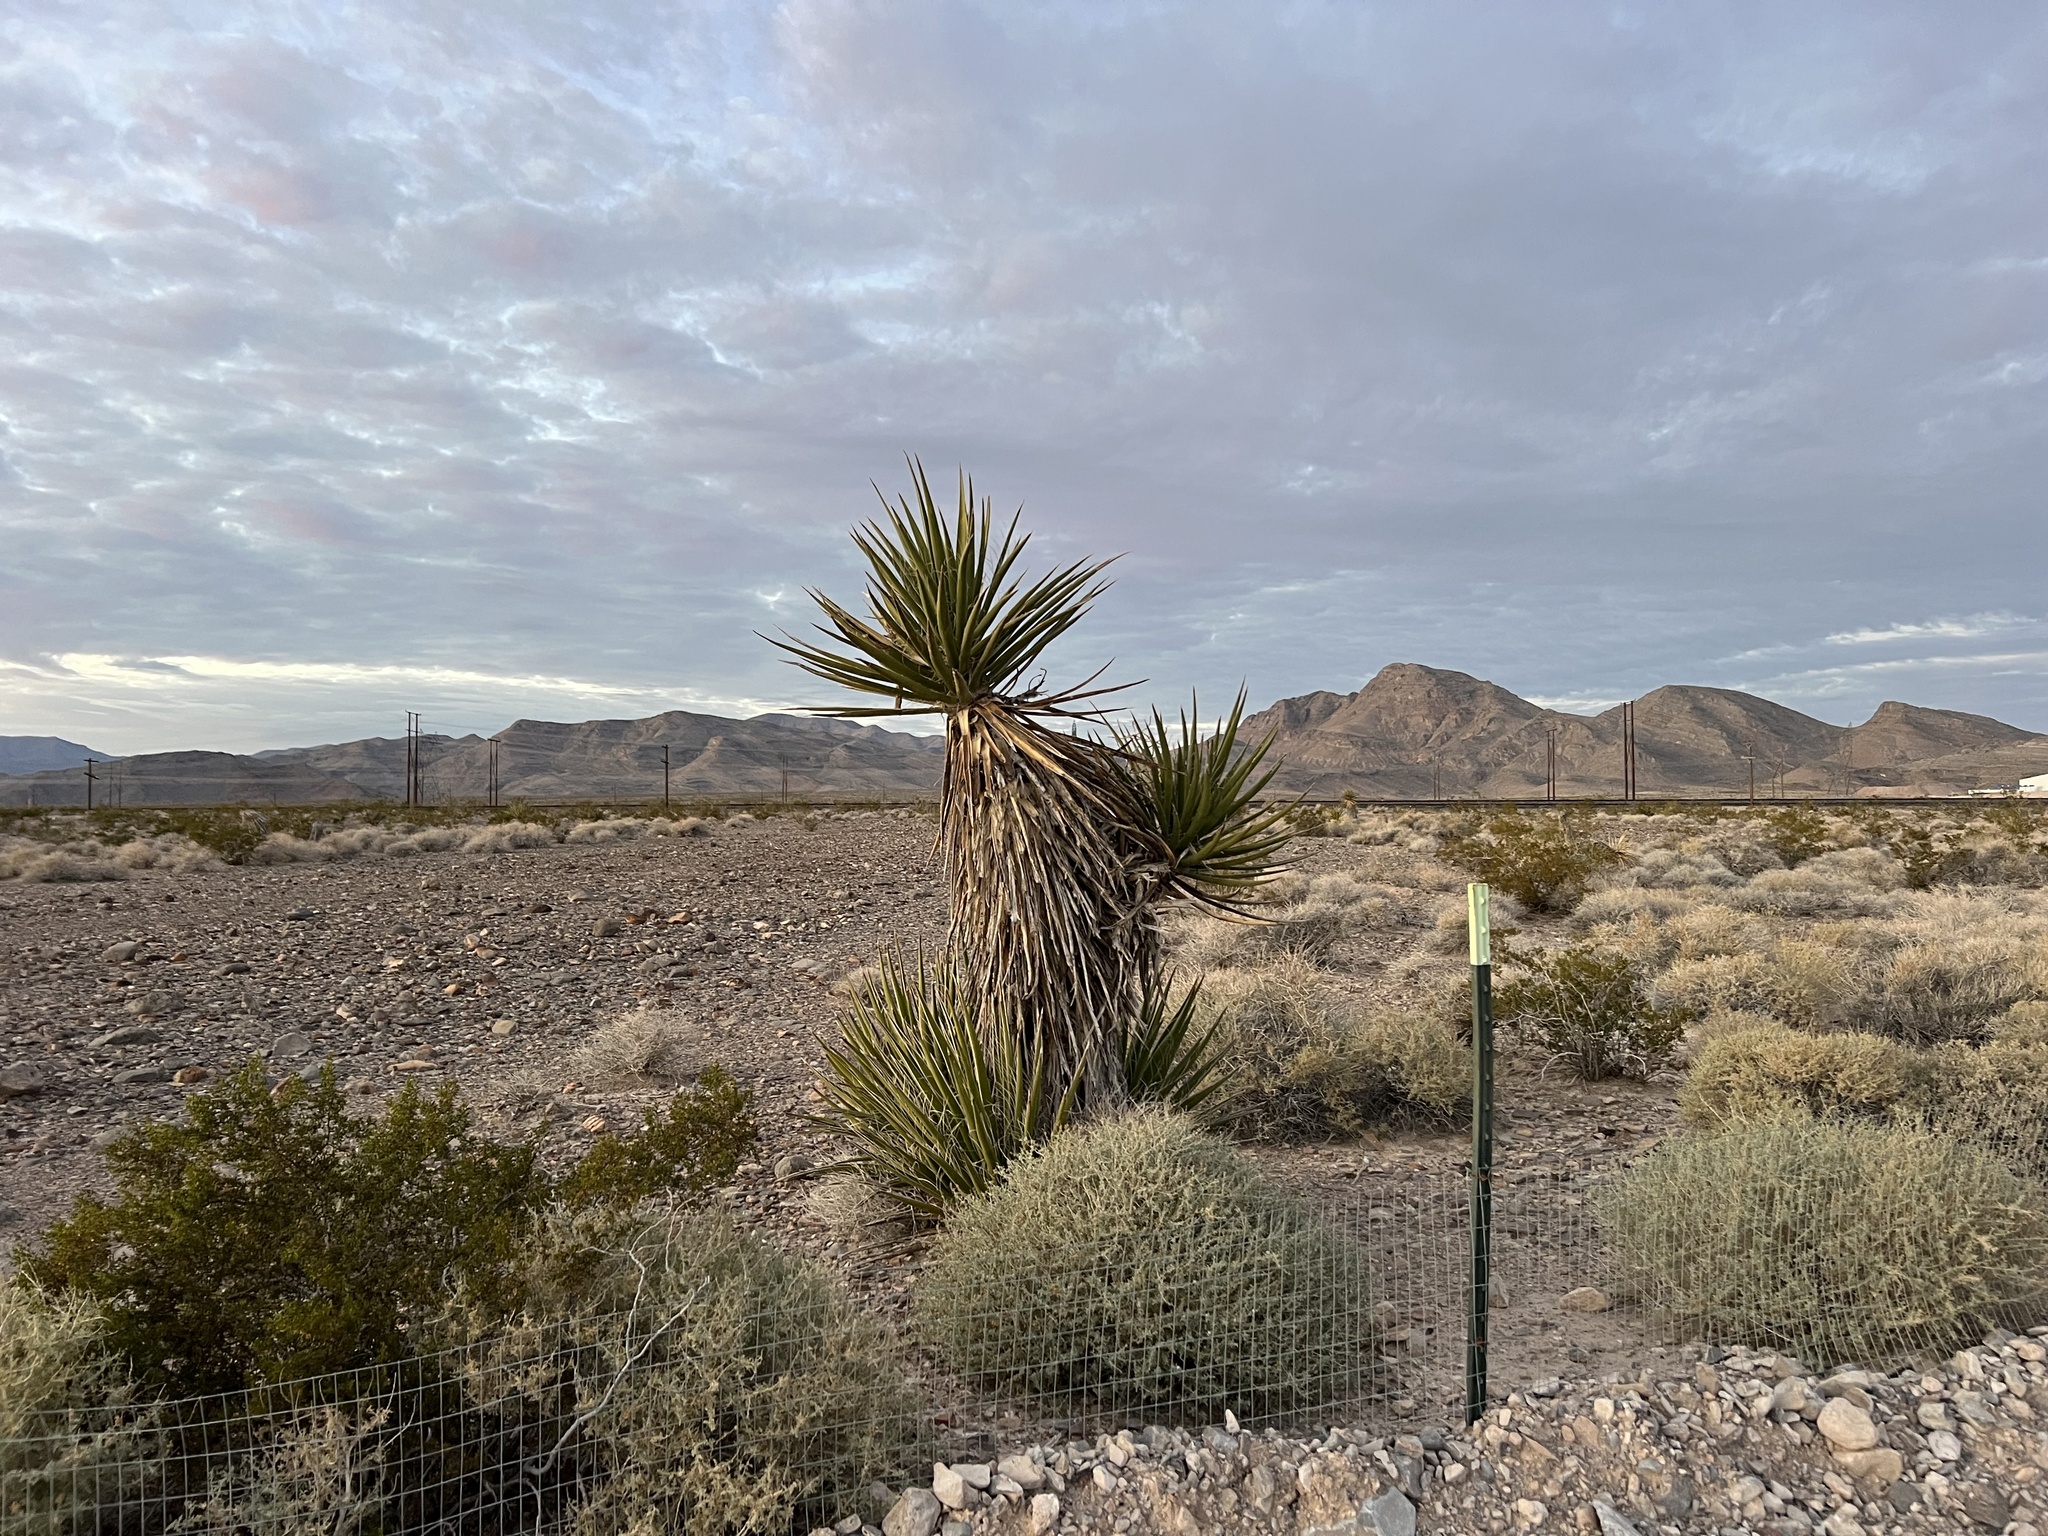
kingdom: Plantae
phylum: Tracheophyta
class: Liliopsida
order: Asparagales
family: Asparagaceae
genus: Yucca
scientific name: Yucca schidigera
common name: Mojave yucca
